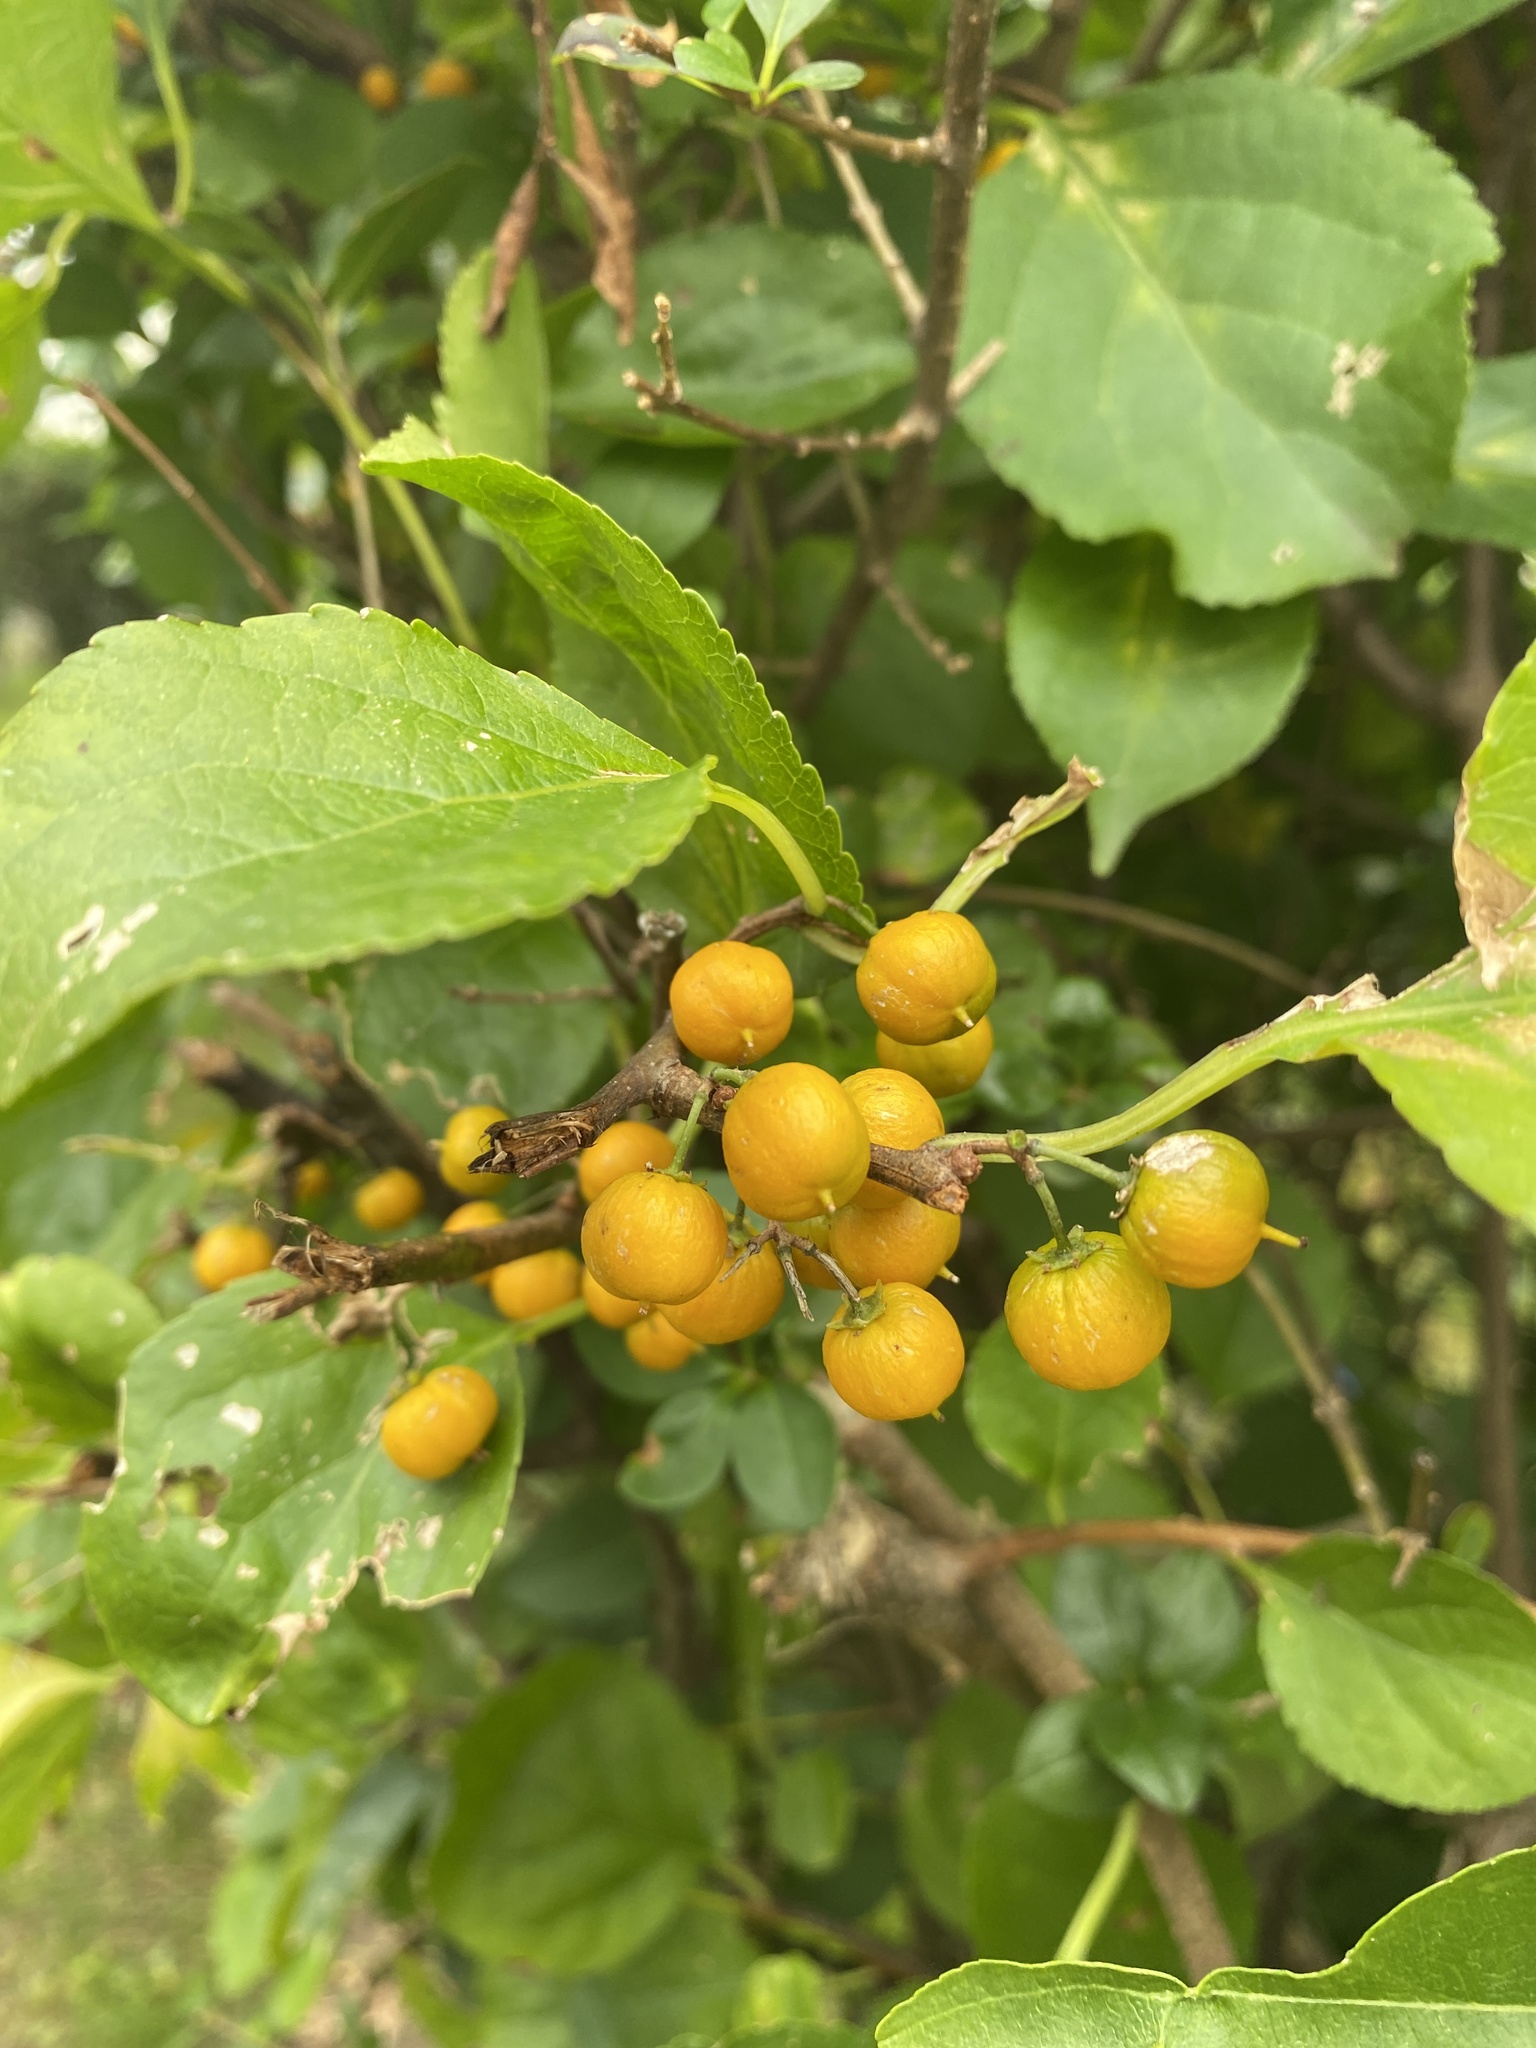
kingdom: Plantae
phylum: Tracheophyta
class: Magnoliopsida
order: Celastrales
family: Celastraceae
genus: Celastrus
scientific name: Celastrus orbiculatus
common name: Oriental bittersweet
